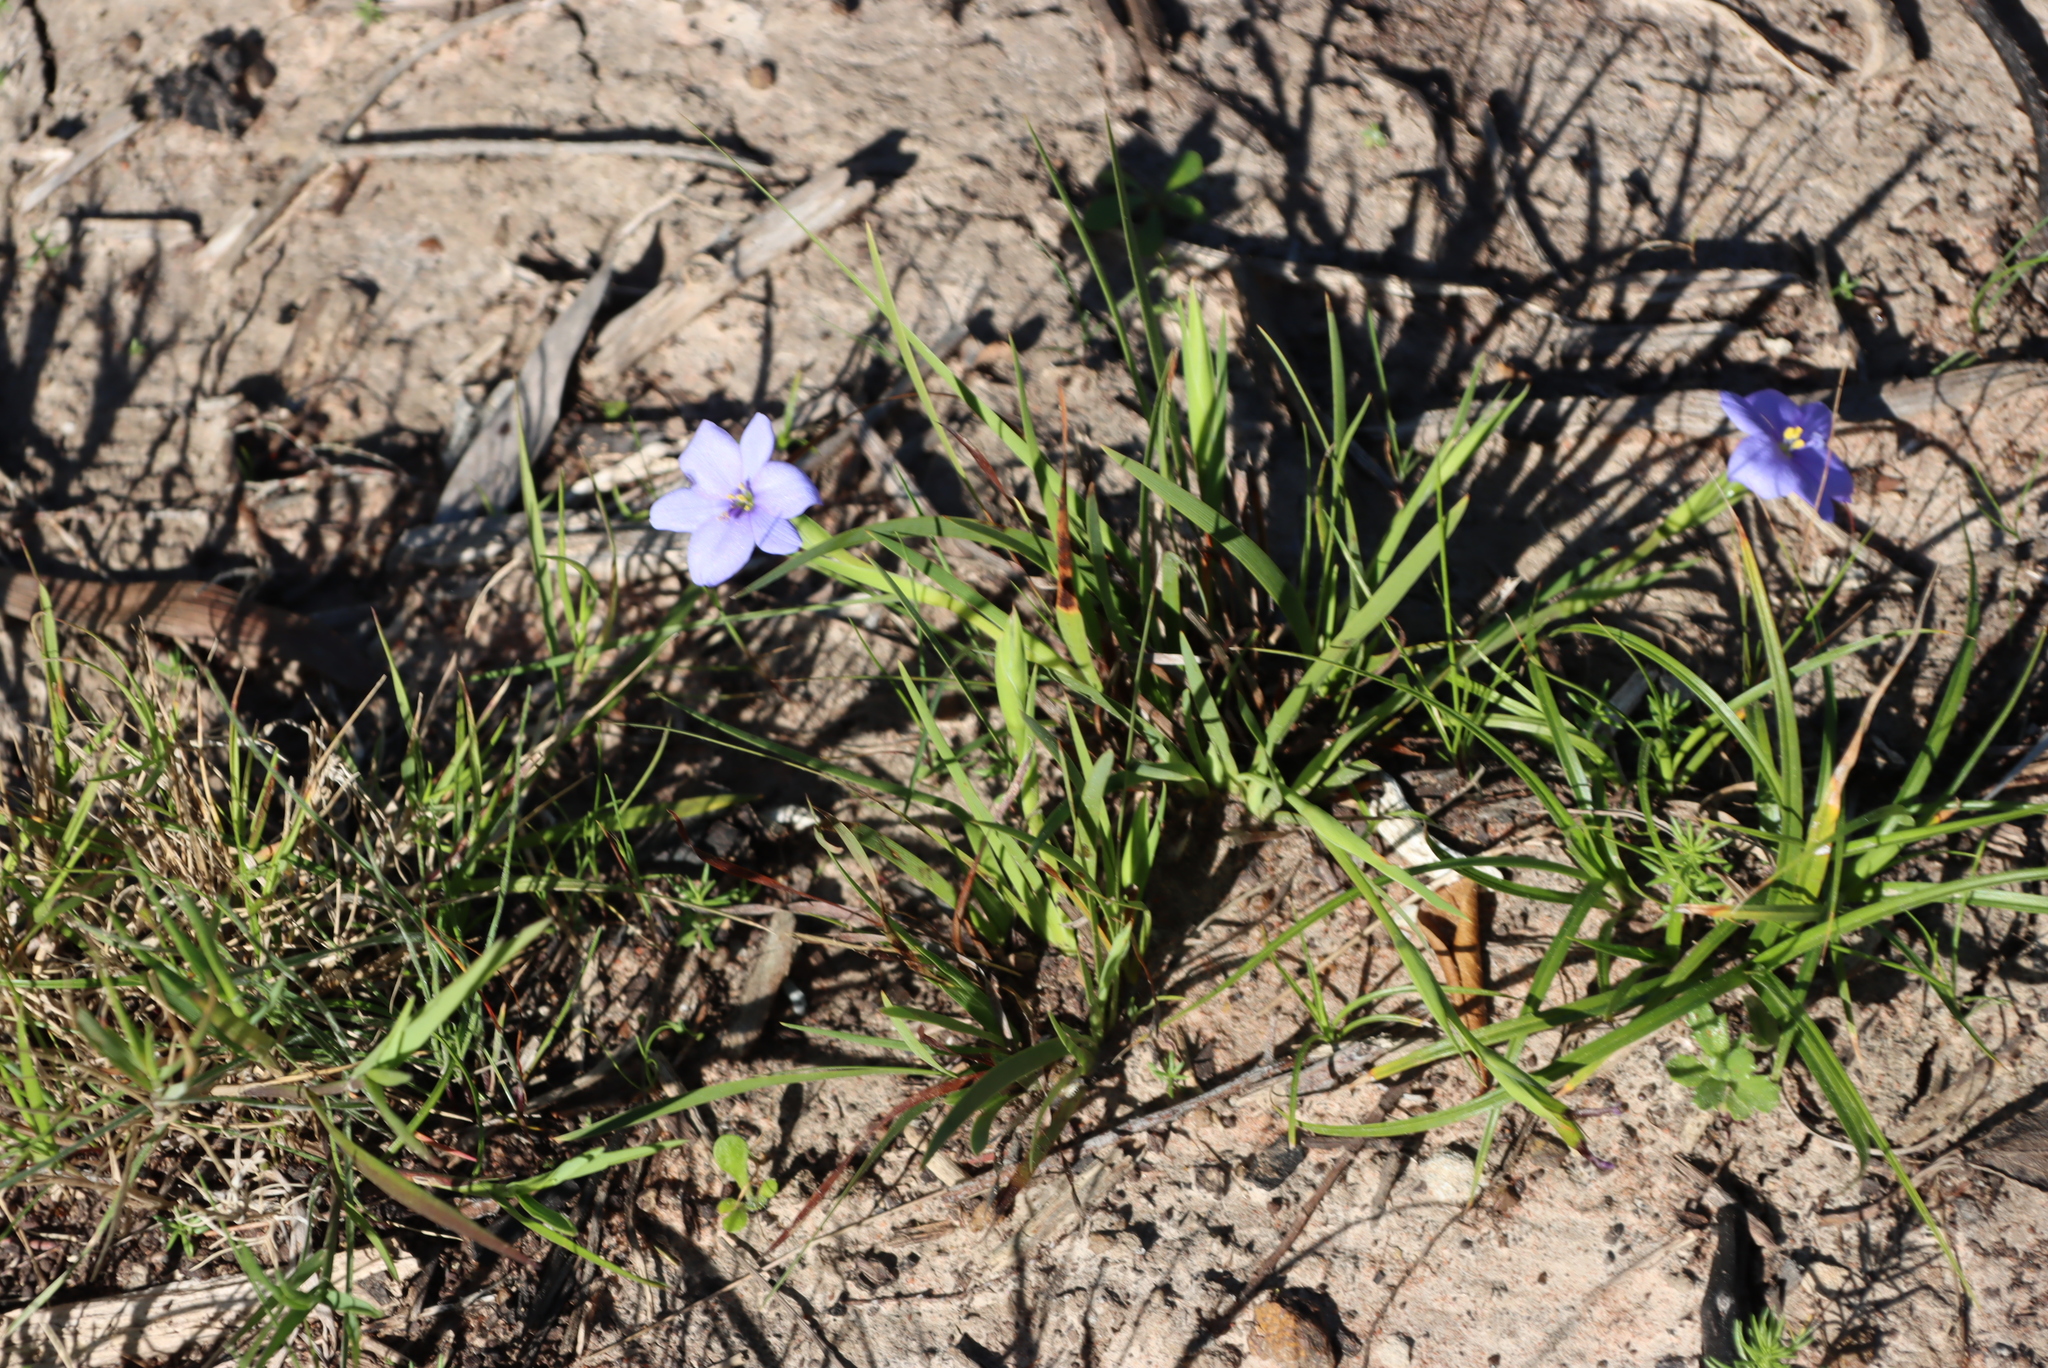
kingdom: Plantae
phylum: Tracheophyta
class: Liliopsida
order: Asparagales
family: Iridaceae
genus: Aristea
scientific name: Aristea pusilla
